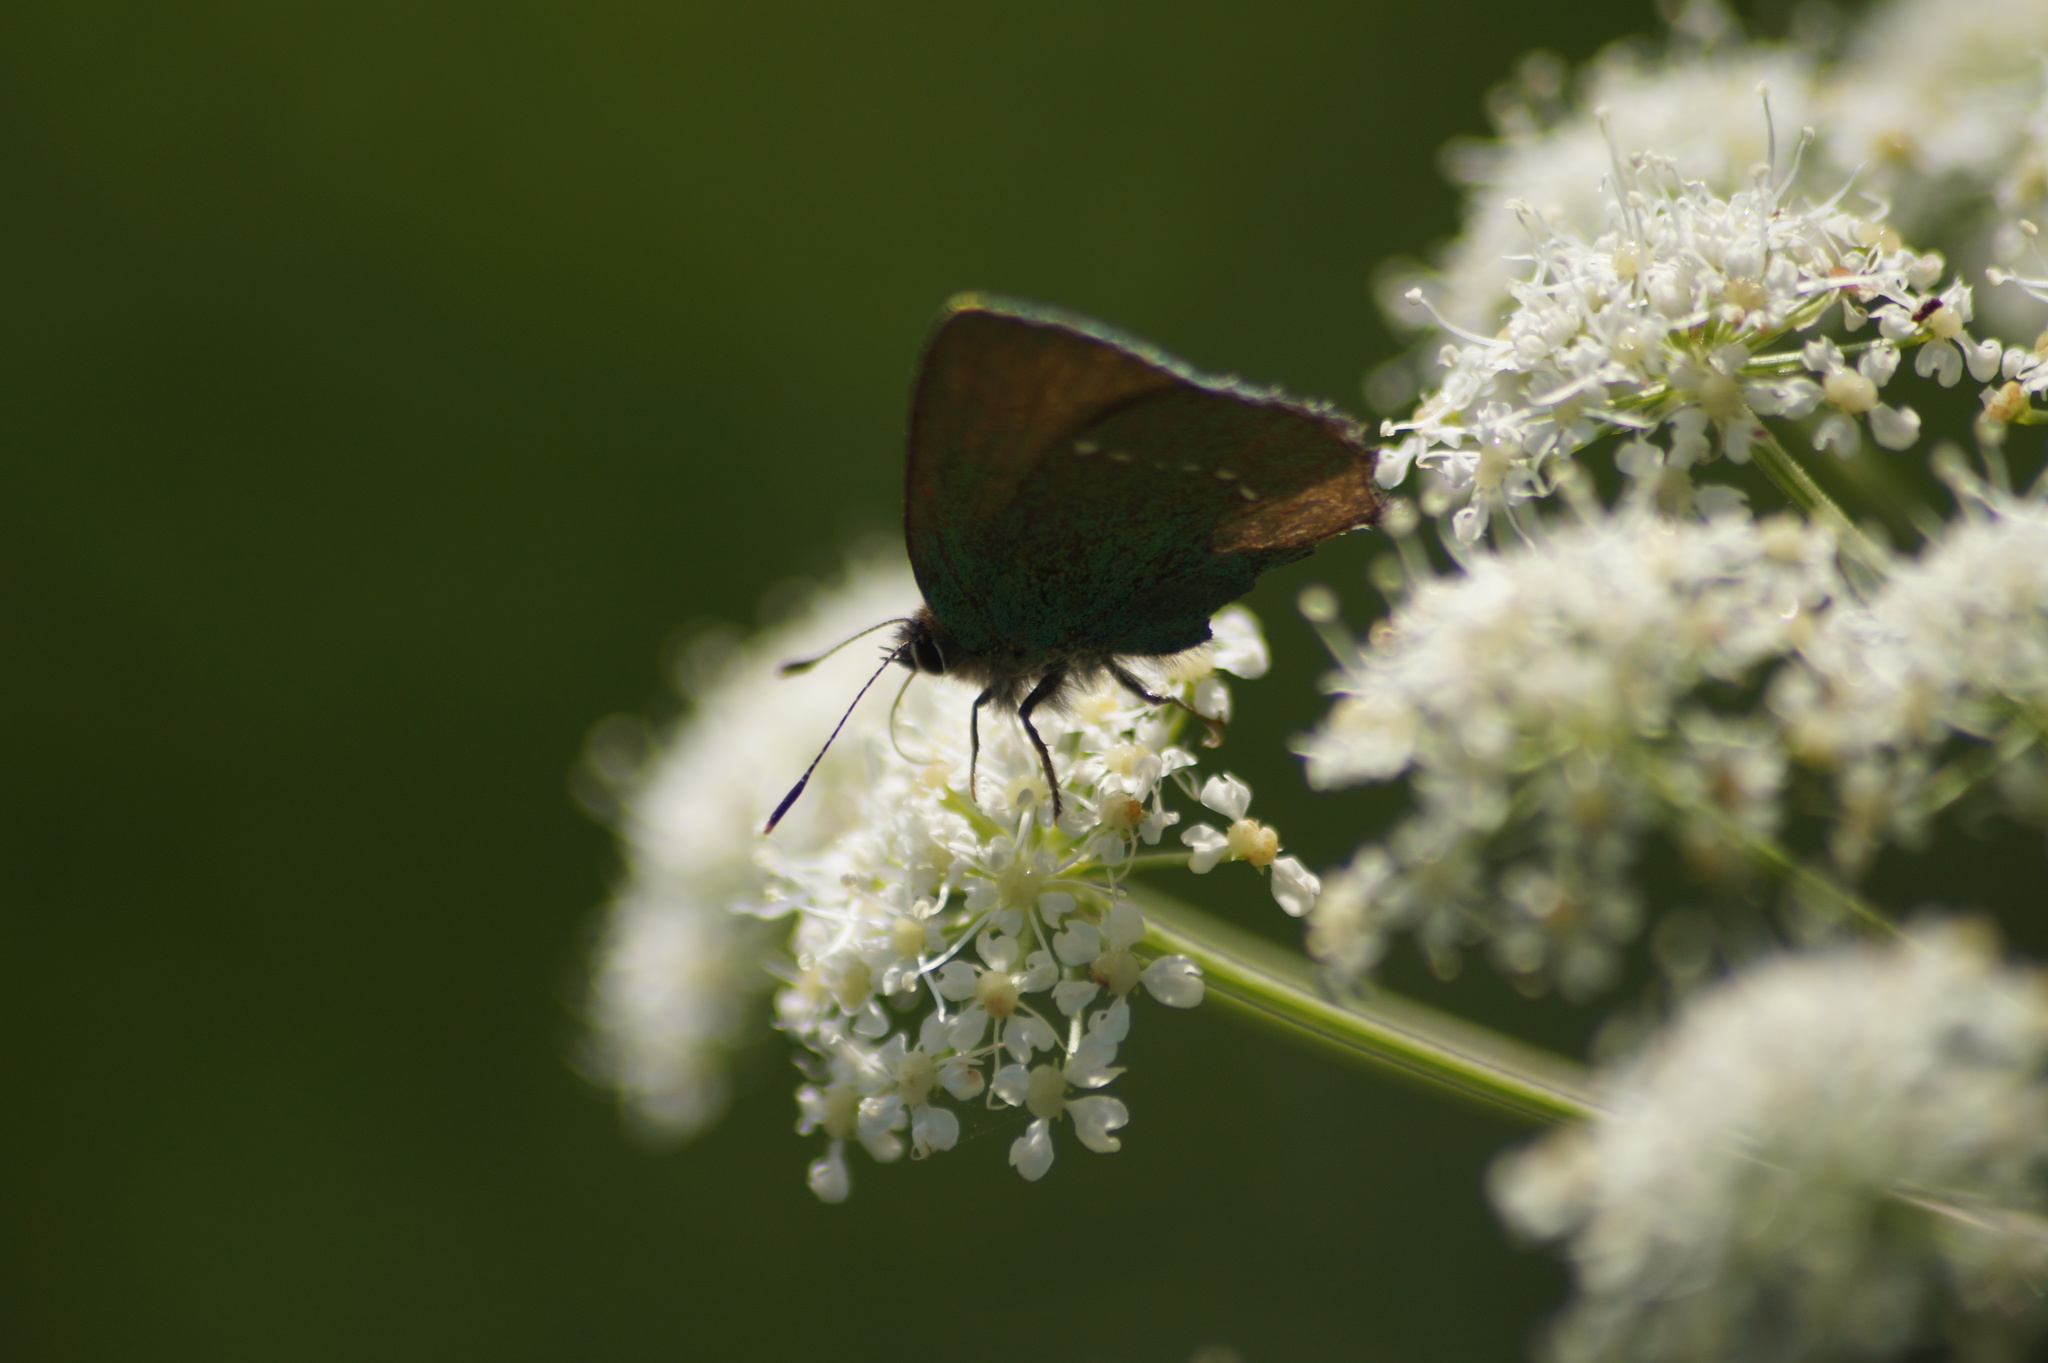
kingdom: Animalia
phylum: Arthropoda
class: Insecta
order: Lepidoptera
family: Lycaenidae
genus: Callophrys
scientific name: Callophrys rubi
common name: Green hairstreak
